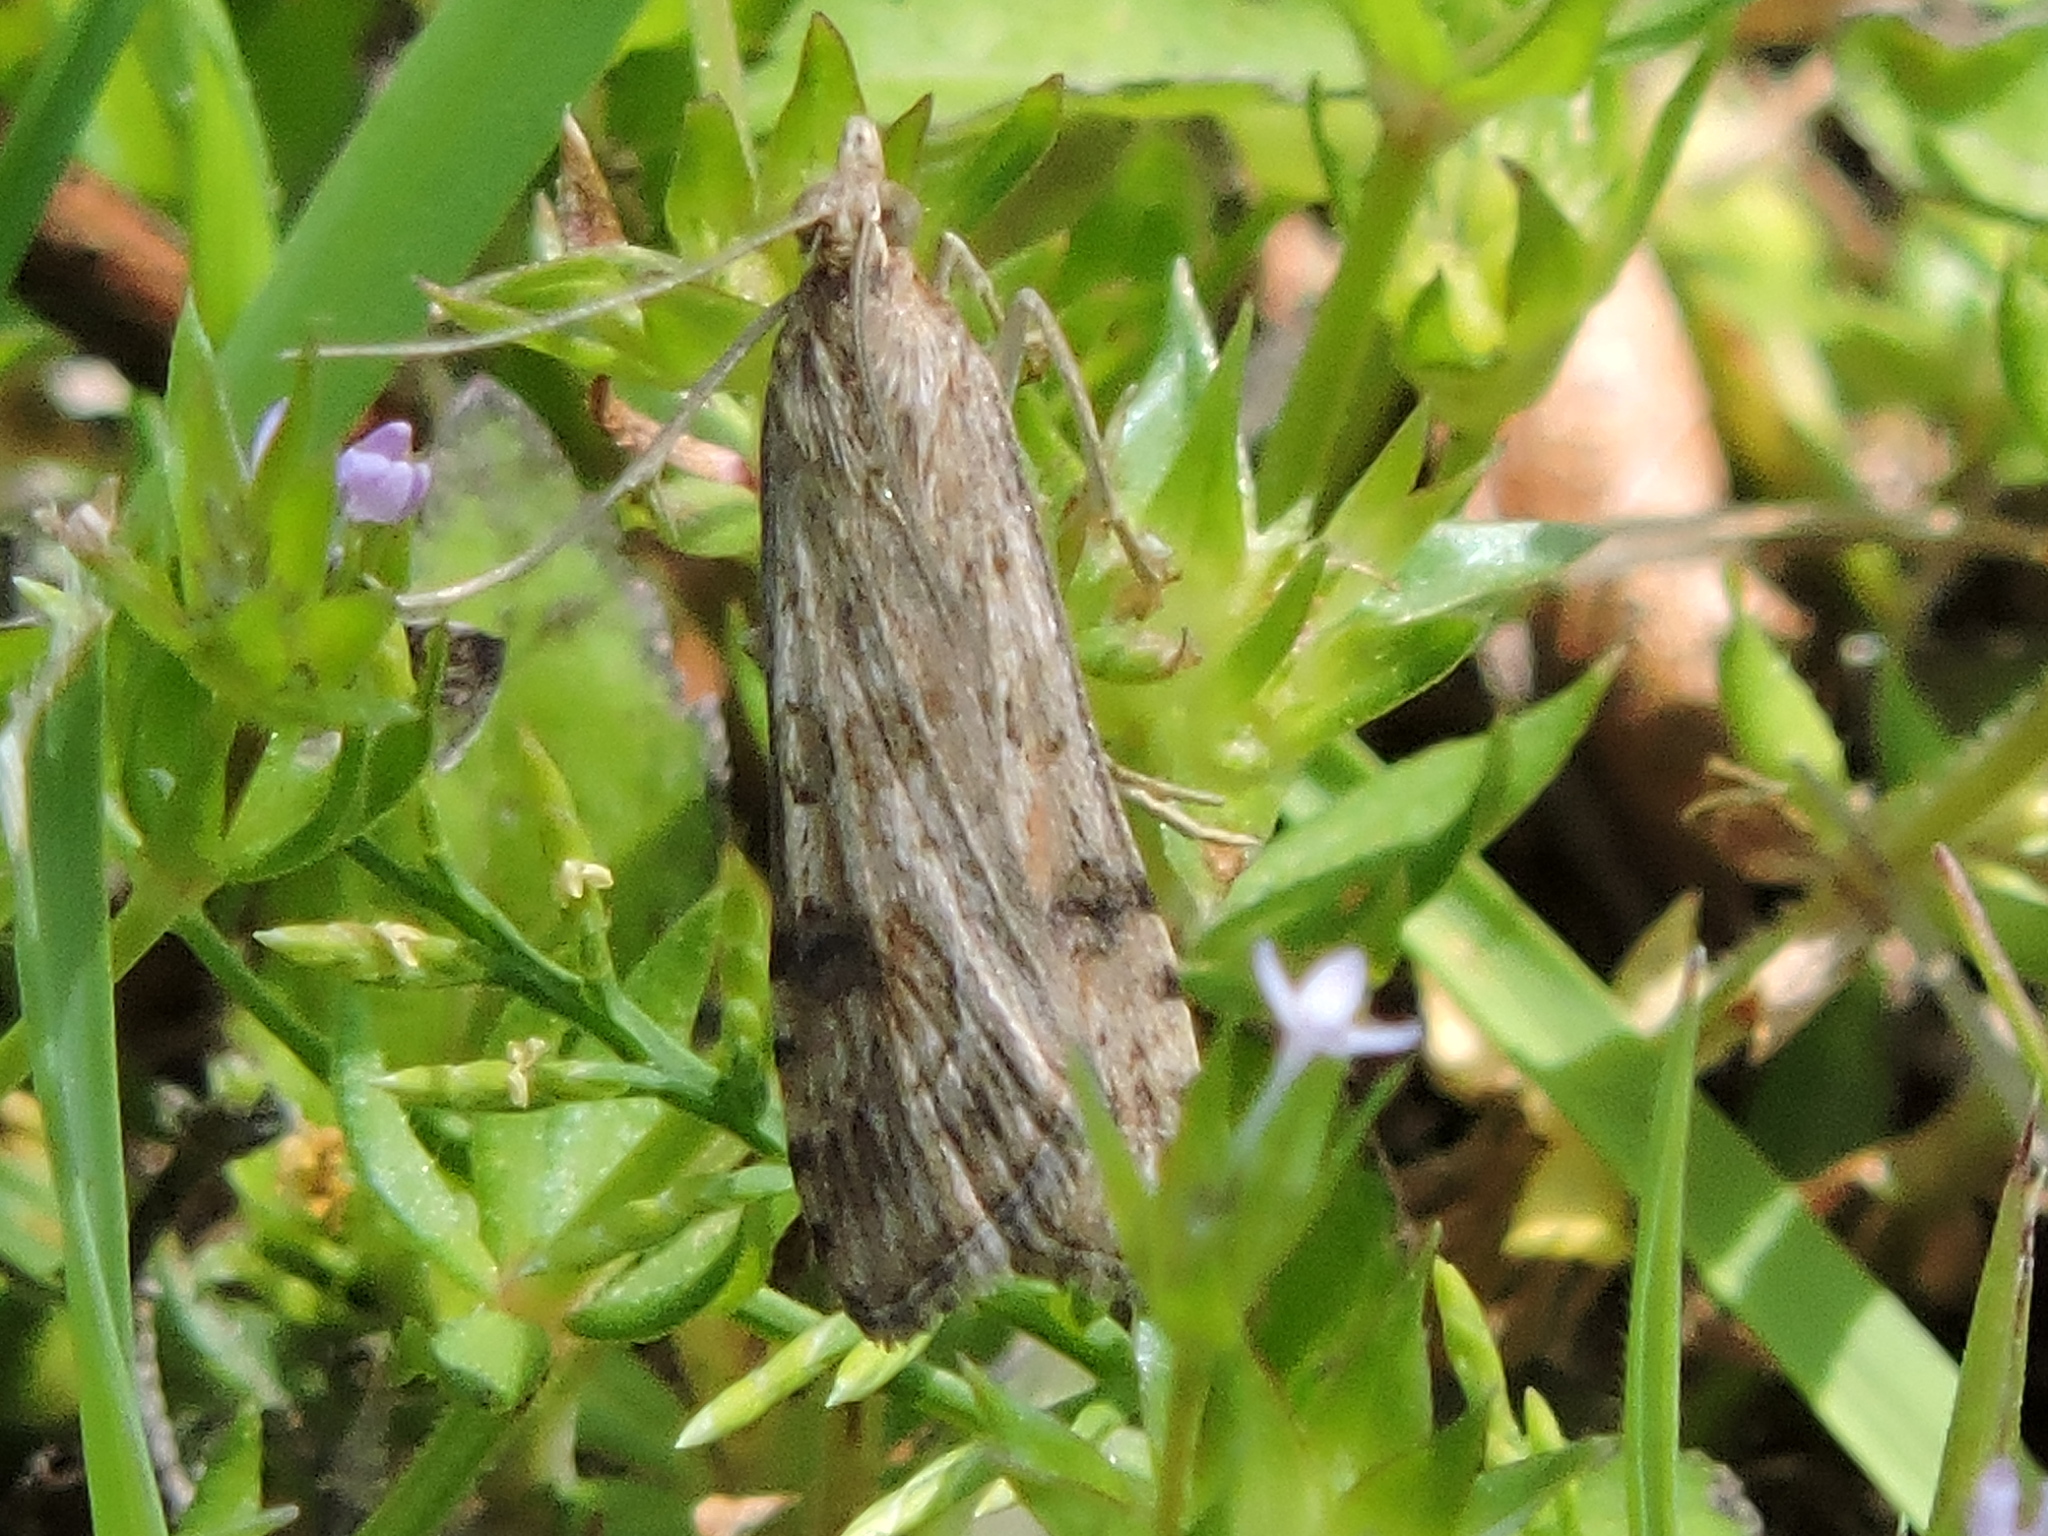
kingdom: Animalia
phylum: Arthropoda
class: Insecta
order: Lepidoptera
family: Crambidae
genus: Nomophila
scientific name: Nomophila nearctica
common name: American rush veneer
